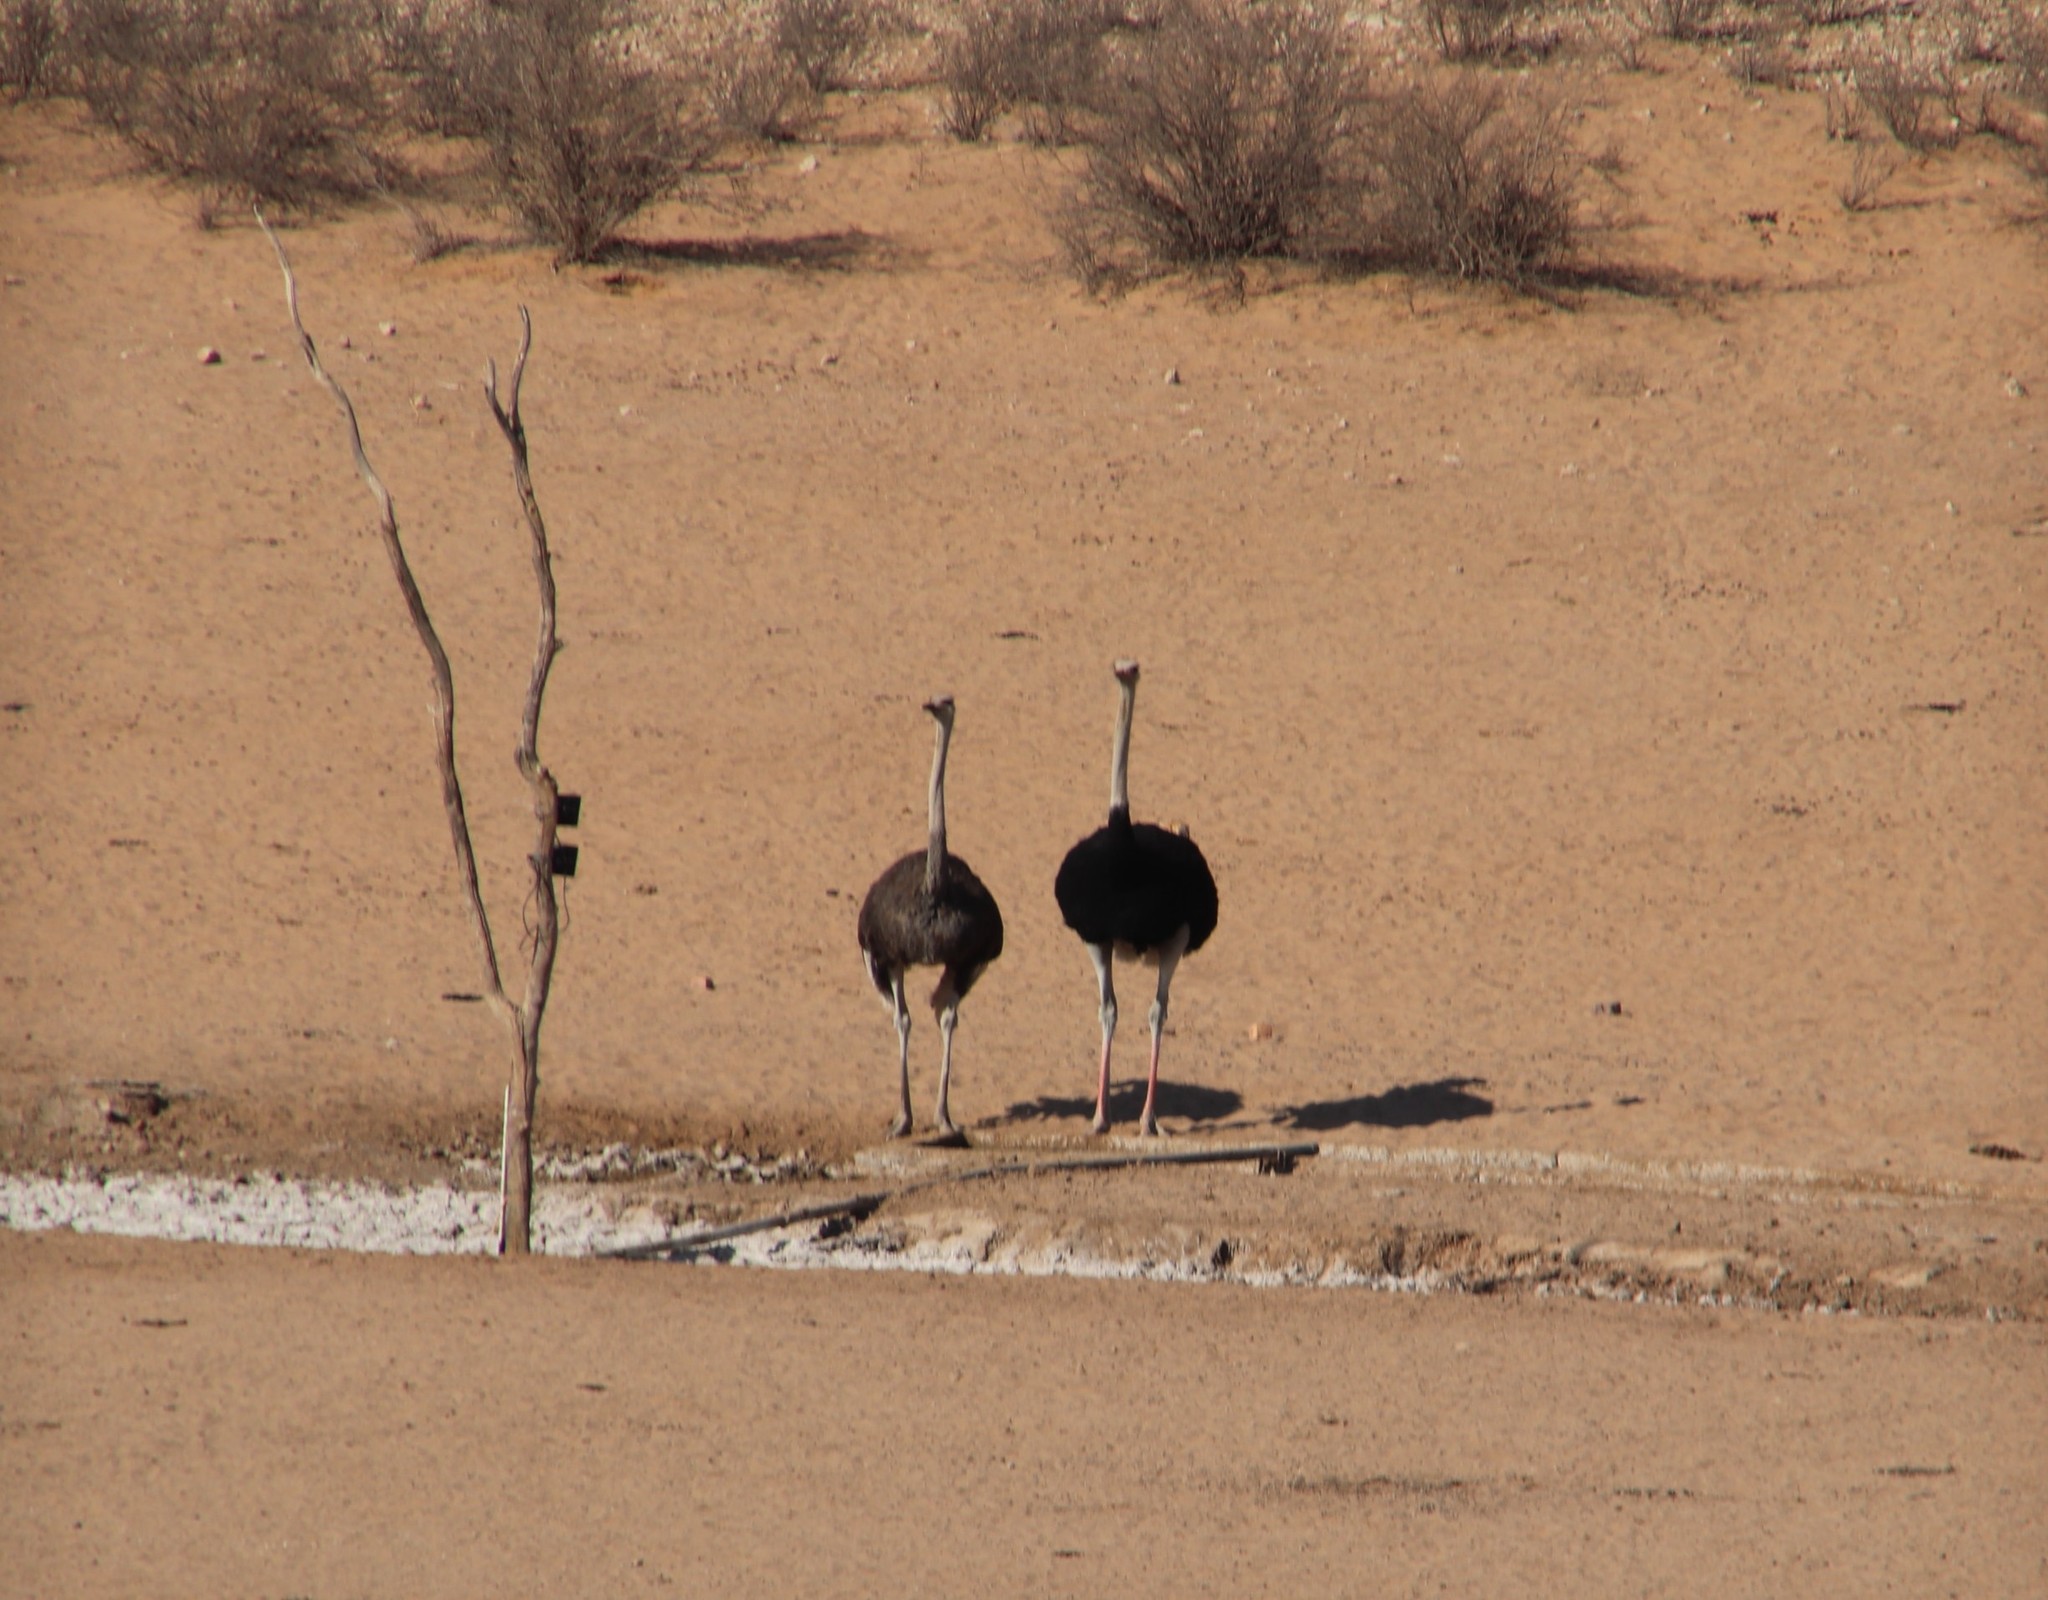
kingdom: Animalia
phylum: Chordata
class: Aves
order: Struthioniformes
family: Struthionidae
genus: Struthio
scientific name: Struthio camelus
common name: Common ostrich
